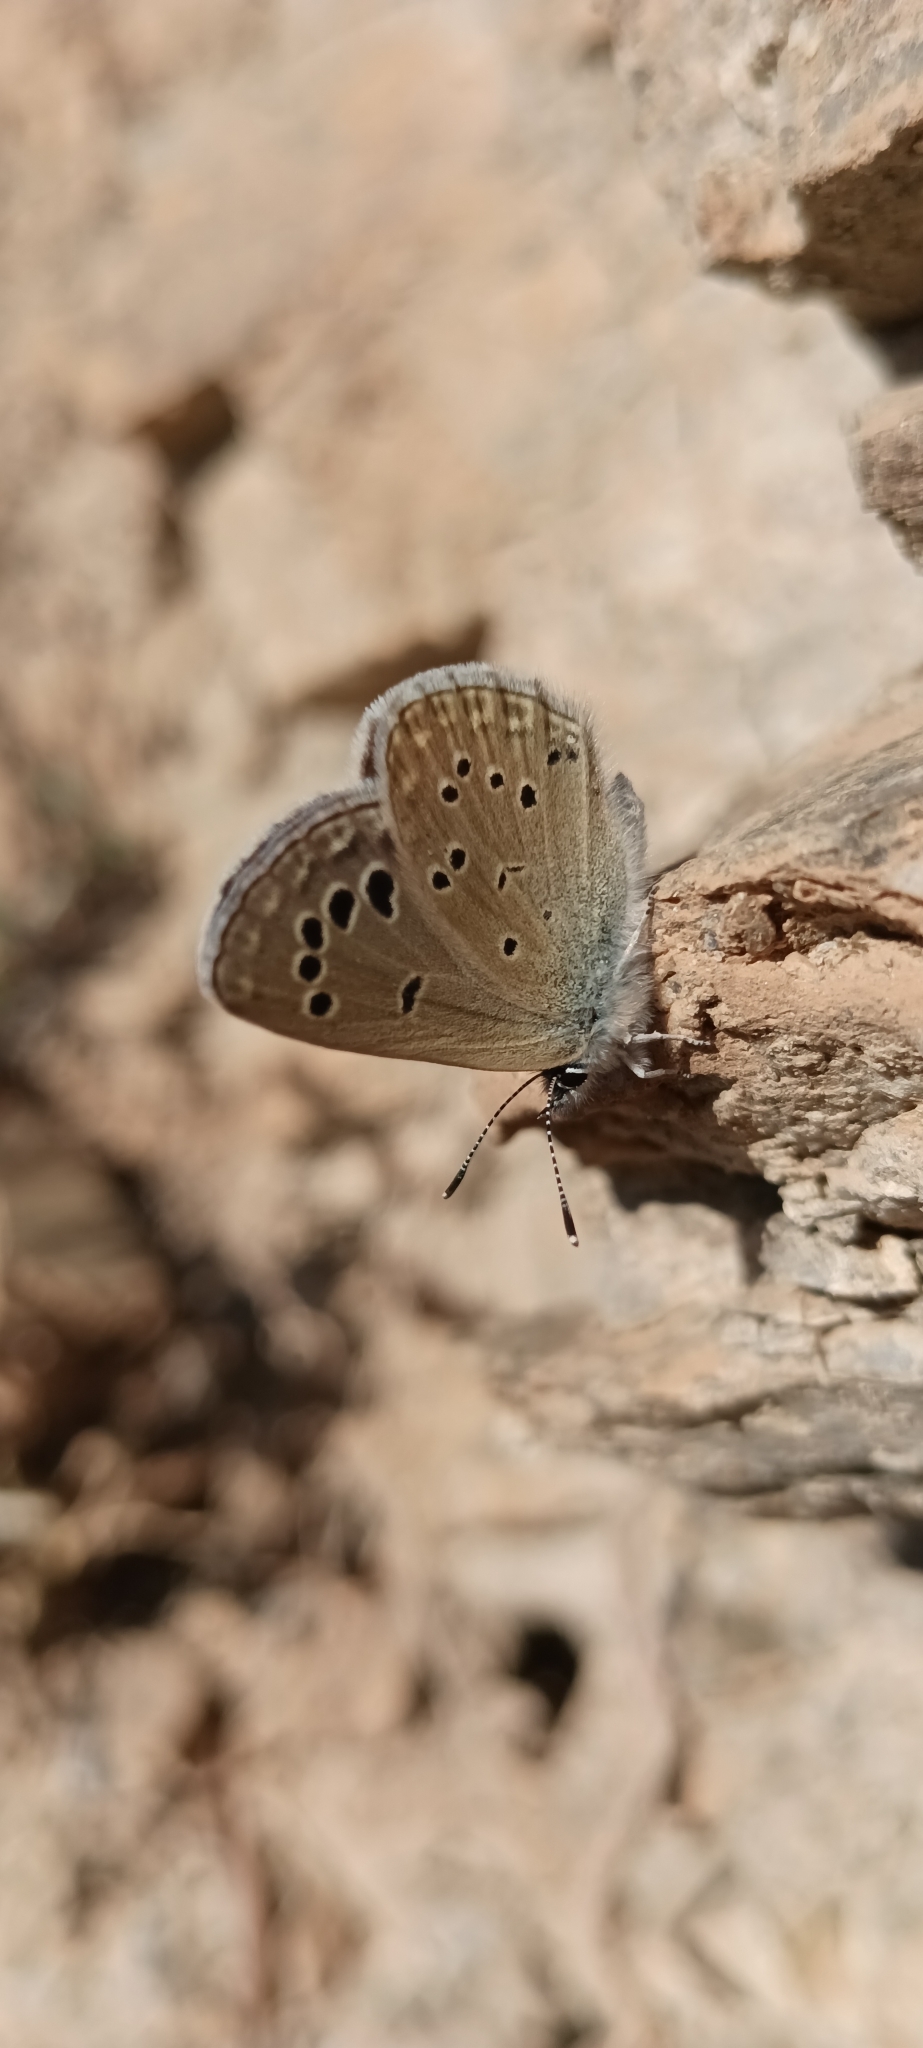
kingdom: Animalia
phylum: Arthropoda
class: Insecta
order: Lepidoptera
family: Lycaenidae
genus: Glaucopsyche
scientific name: Glaucopsyche melanops
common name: Black-eyed blue
